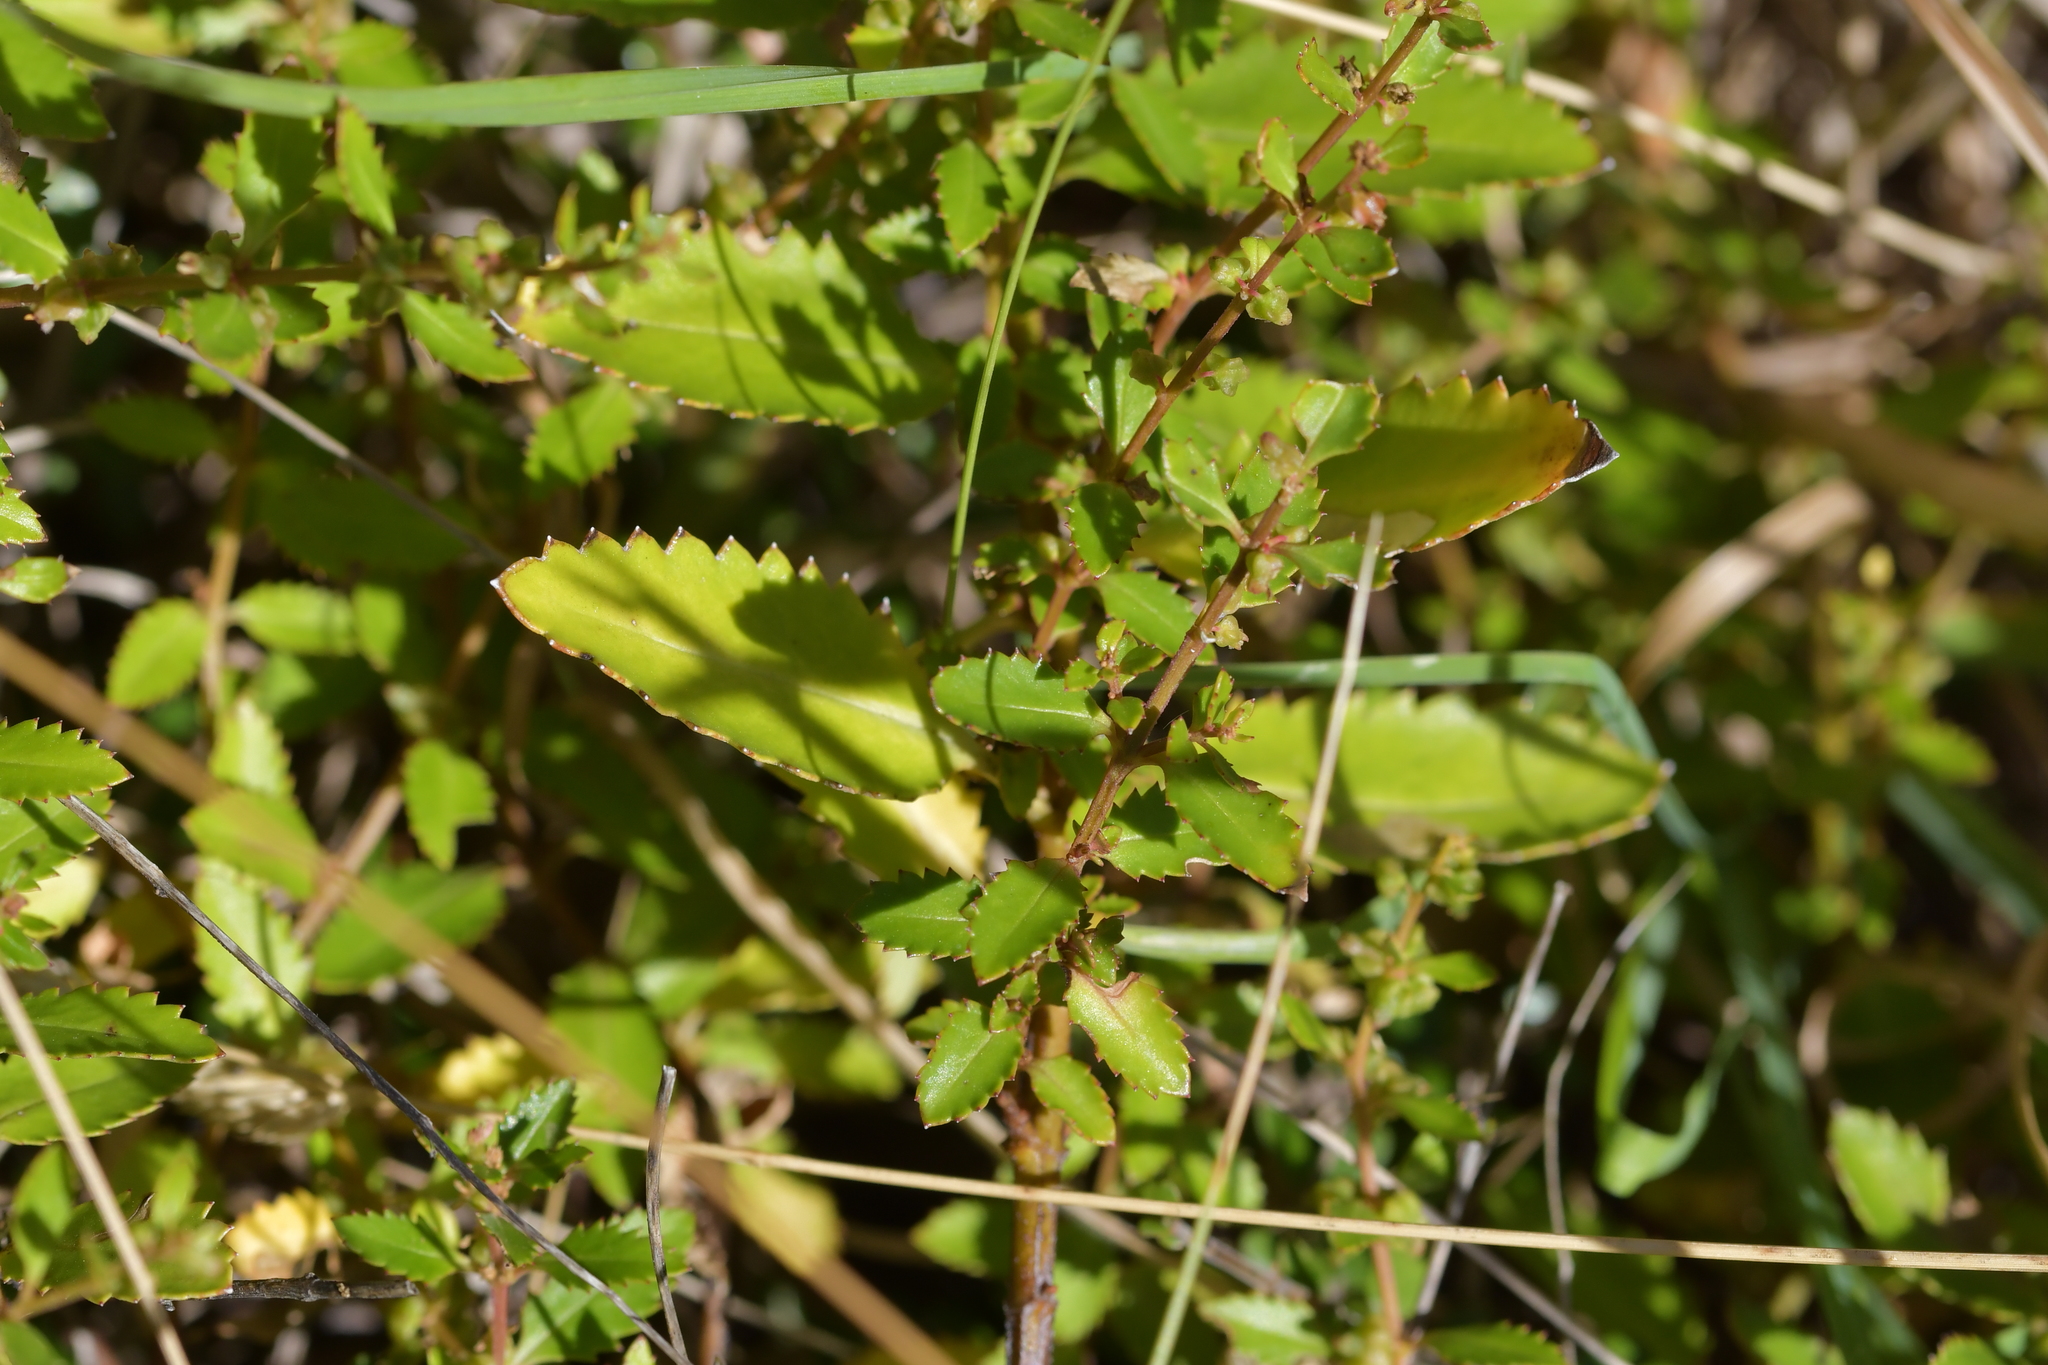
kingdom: Plantae
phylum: Tracheophyta
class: Magnoliopsida
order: Saxifragales
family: Haloragaceae
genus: Haloragis
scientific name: Haloragis erecta
